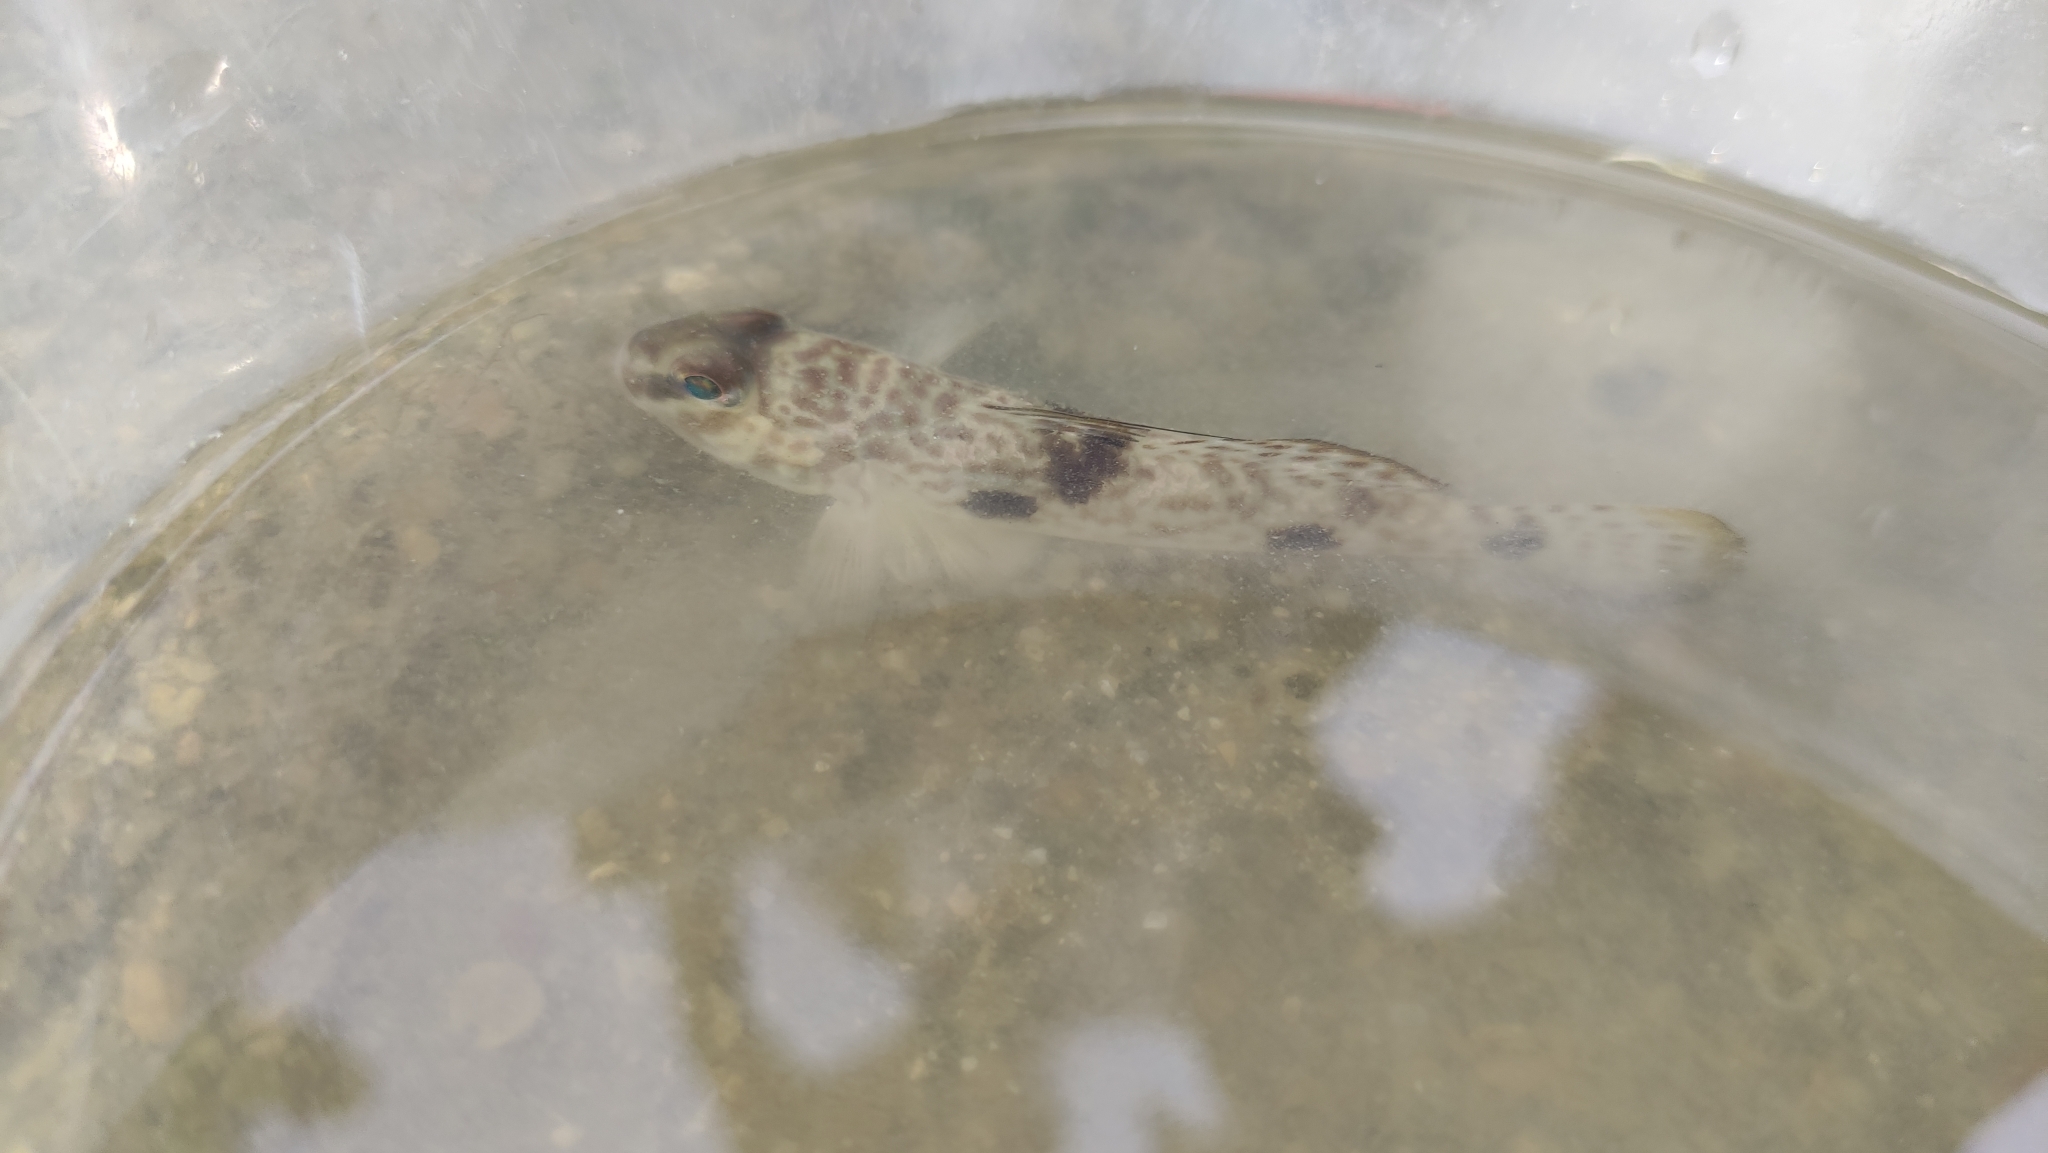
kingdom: Animalia
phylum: Chordata
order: Perciformes
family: Gobiidae
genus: Acentrogobius
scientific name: Acentrogobius nebulosus
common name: Shadow goby
